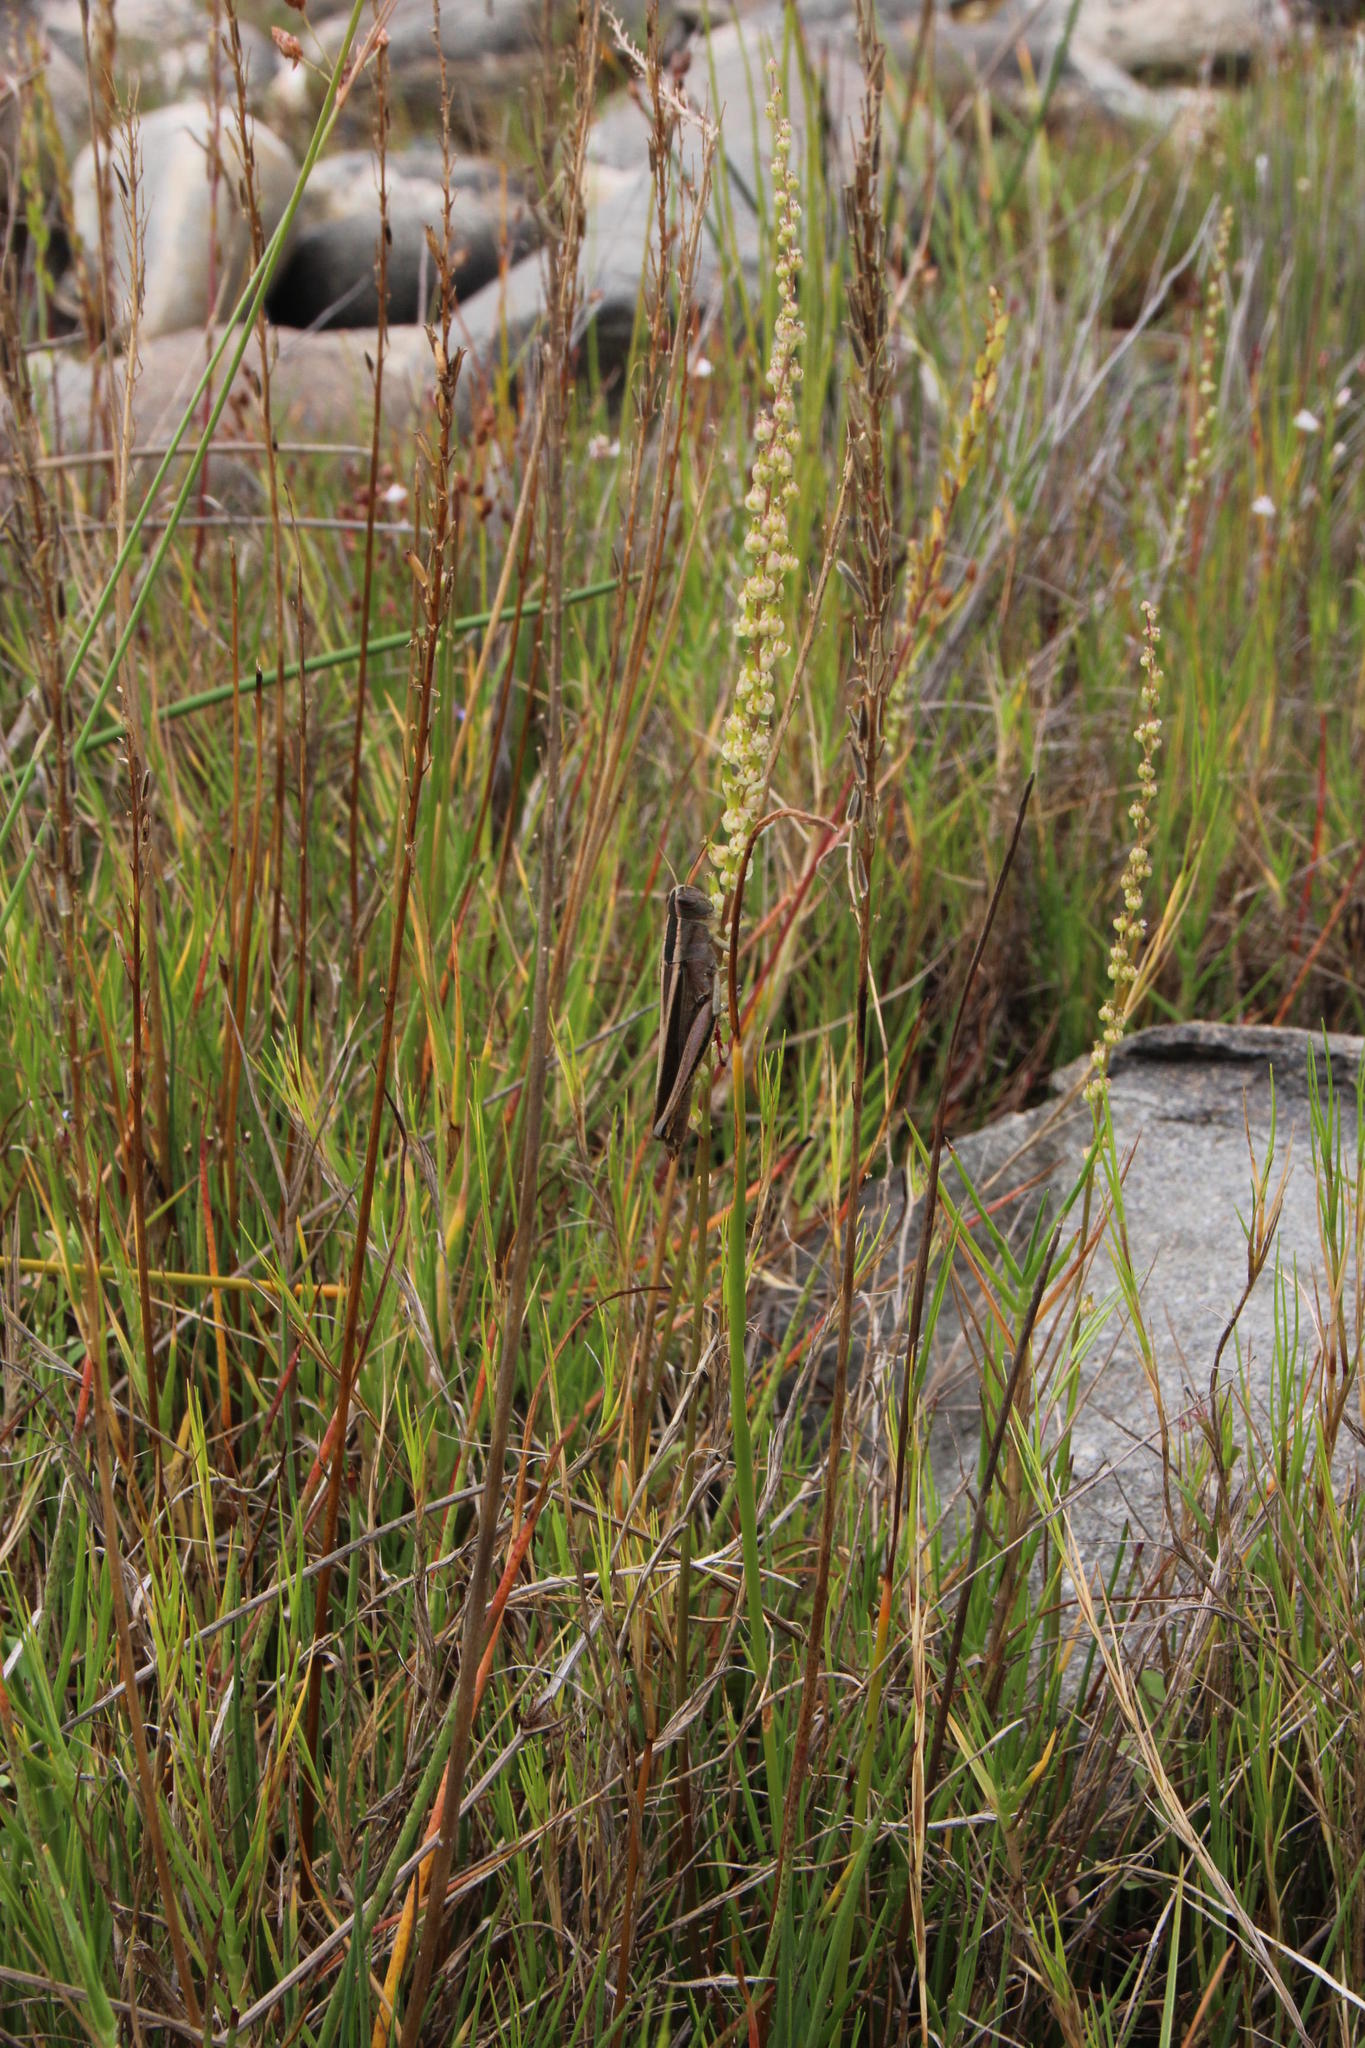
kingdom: Plantae
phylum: Tracheophyta
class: Liliopsida
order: Alismatales
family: Juncaginaceae
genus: Triglochin
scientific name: Triglochin striata
